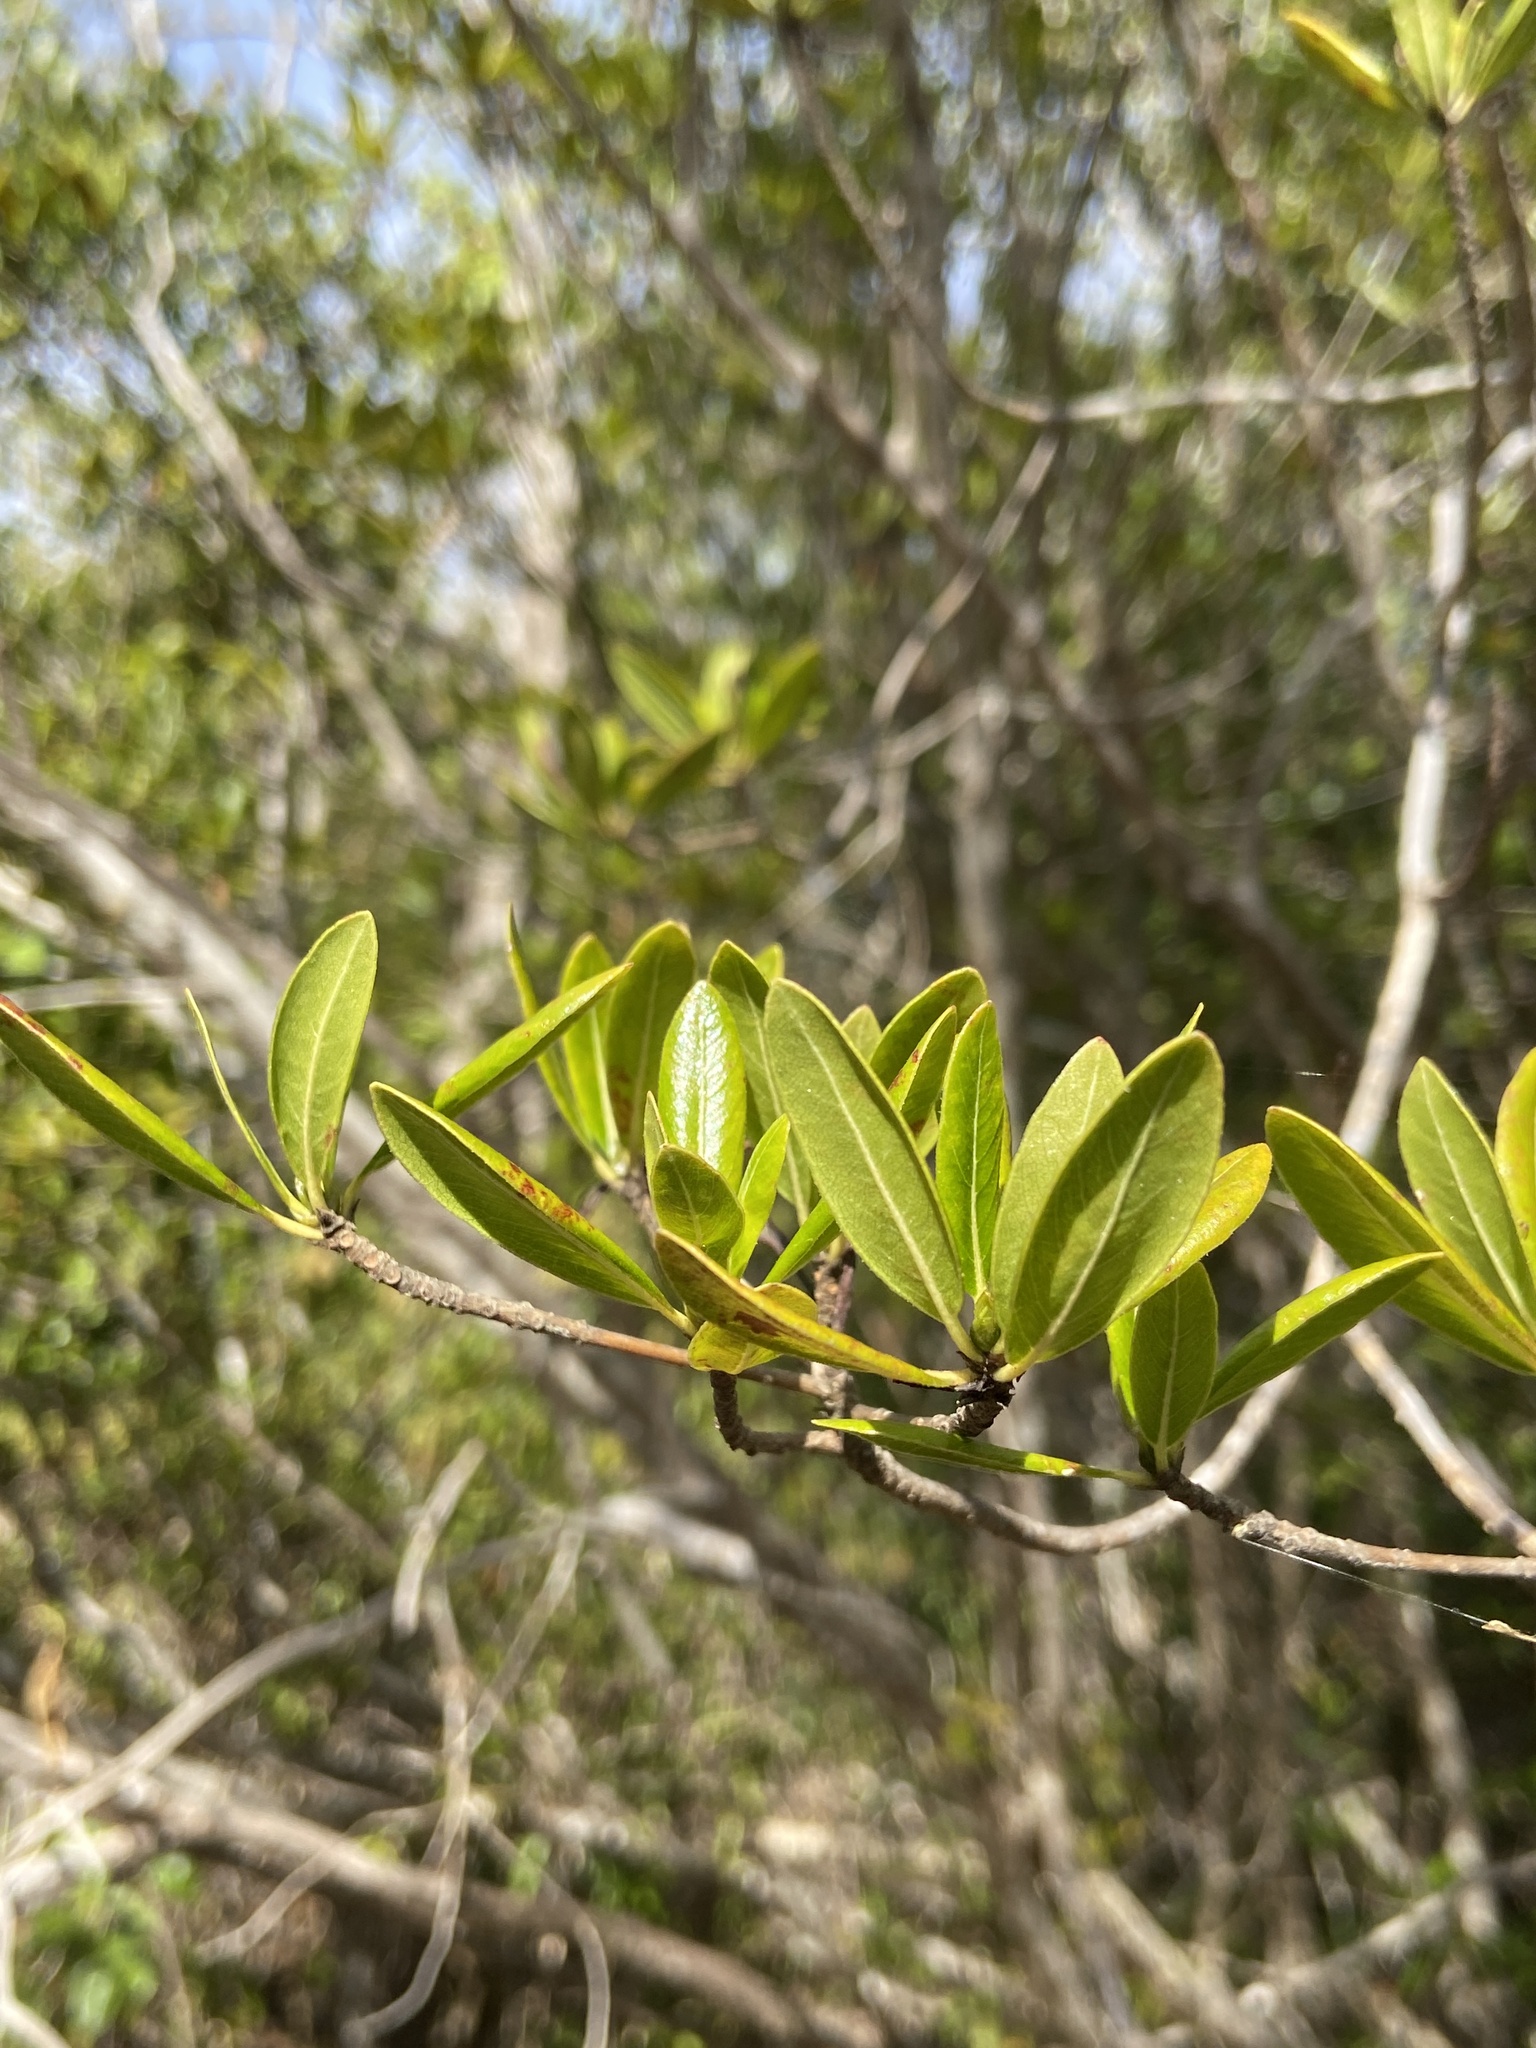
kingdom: Plantae
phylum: Tracheophyta
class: Magnoliopsida
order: Gentianales
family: Rubiaceae
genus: Stenostomum
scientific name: Stenostomum acutatum
